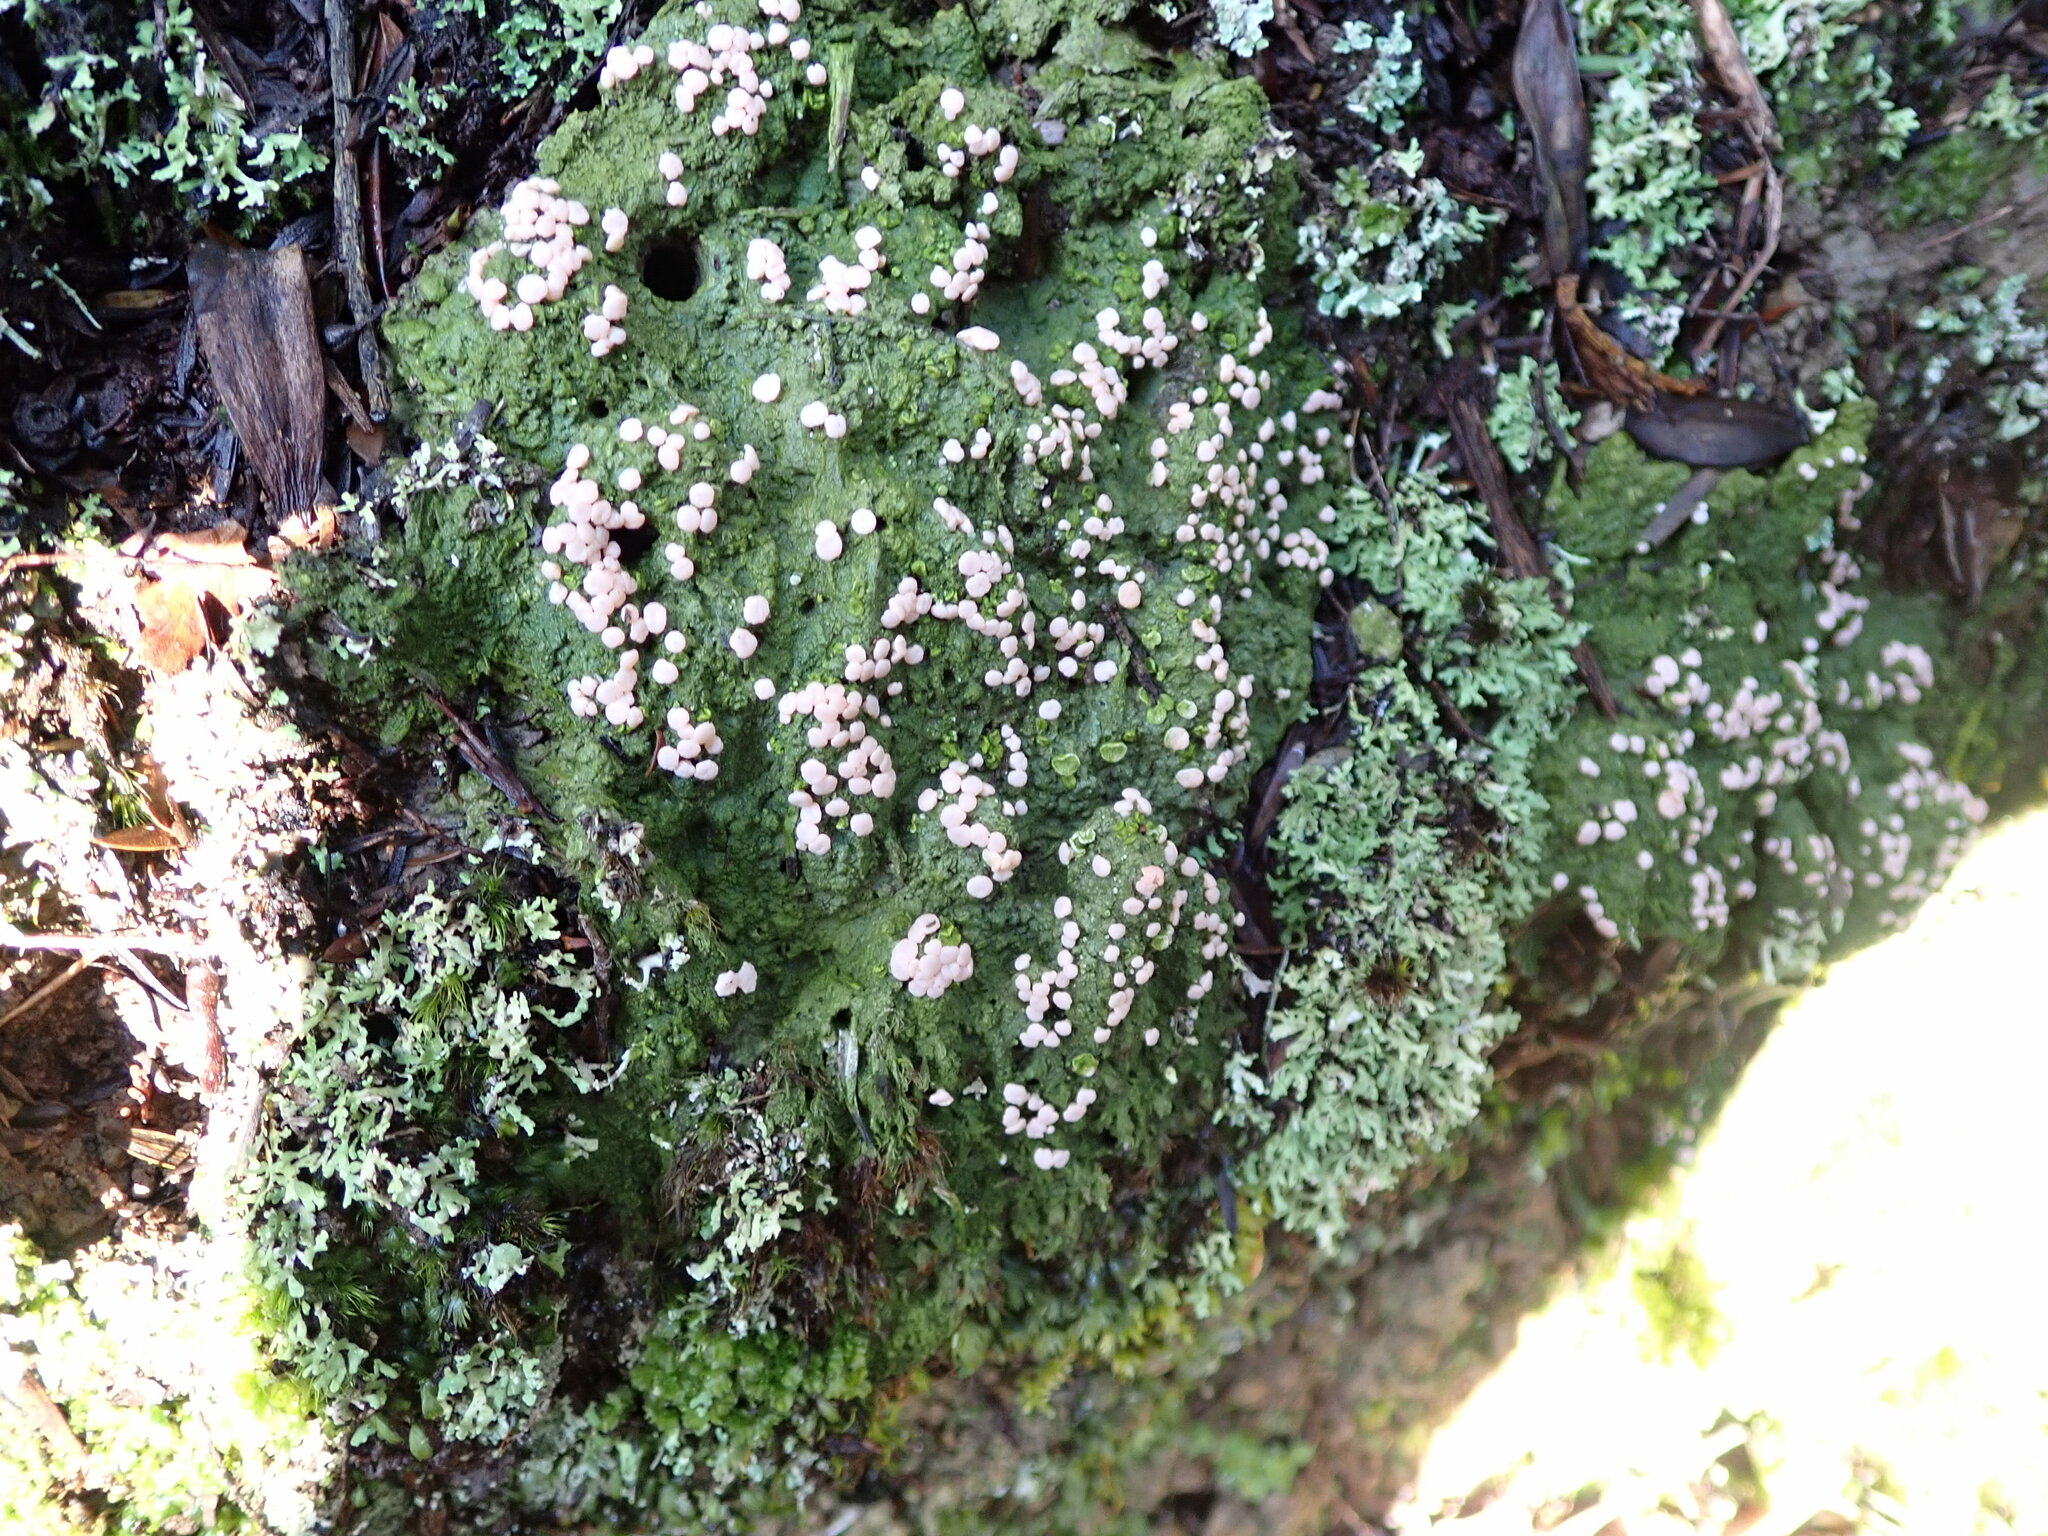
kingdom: Fungi
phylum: Ascomycota
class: Lecanoromycetes
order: Pertusariales
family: Icmadophilaceae
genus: Dibaeis
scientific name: Dibaeis absoluta
